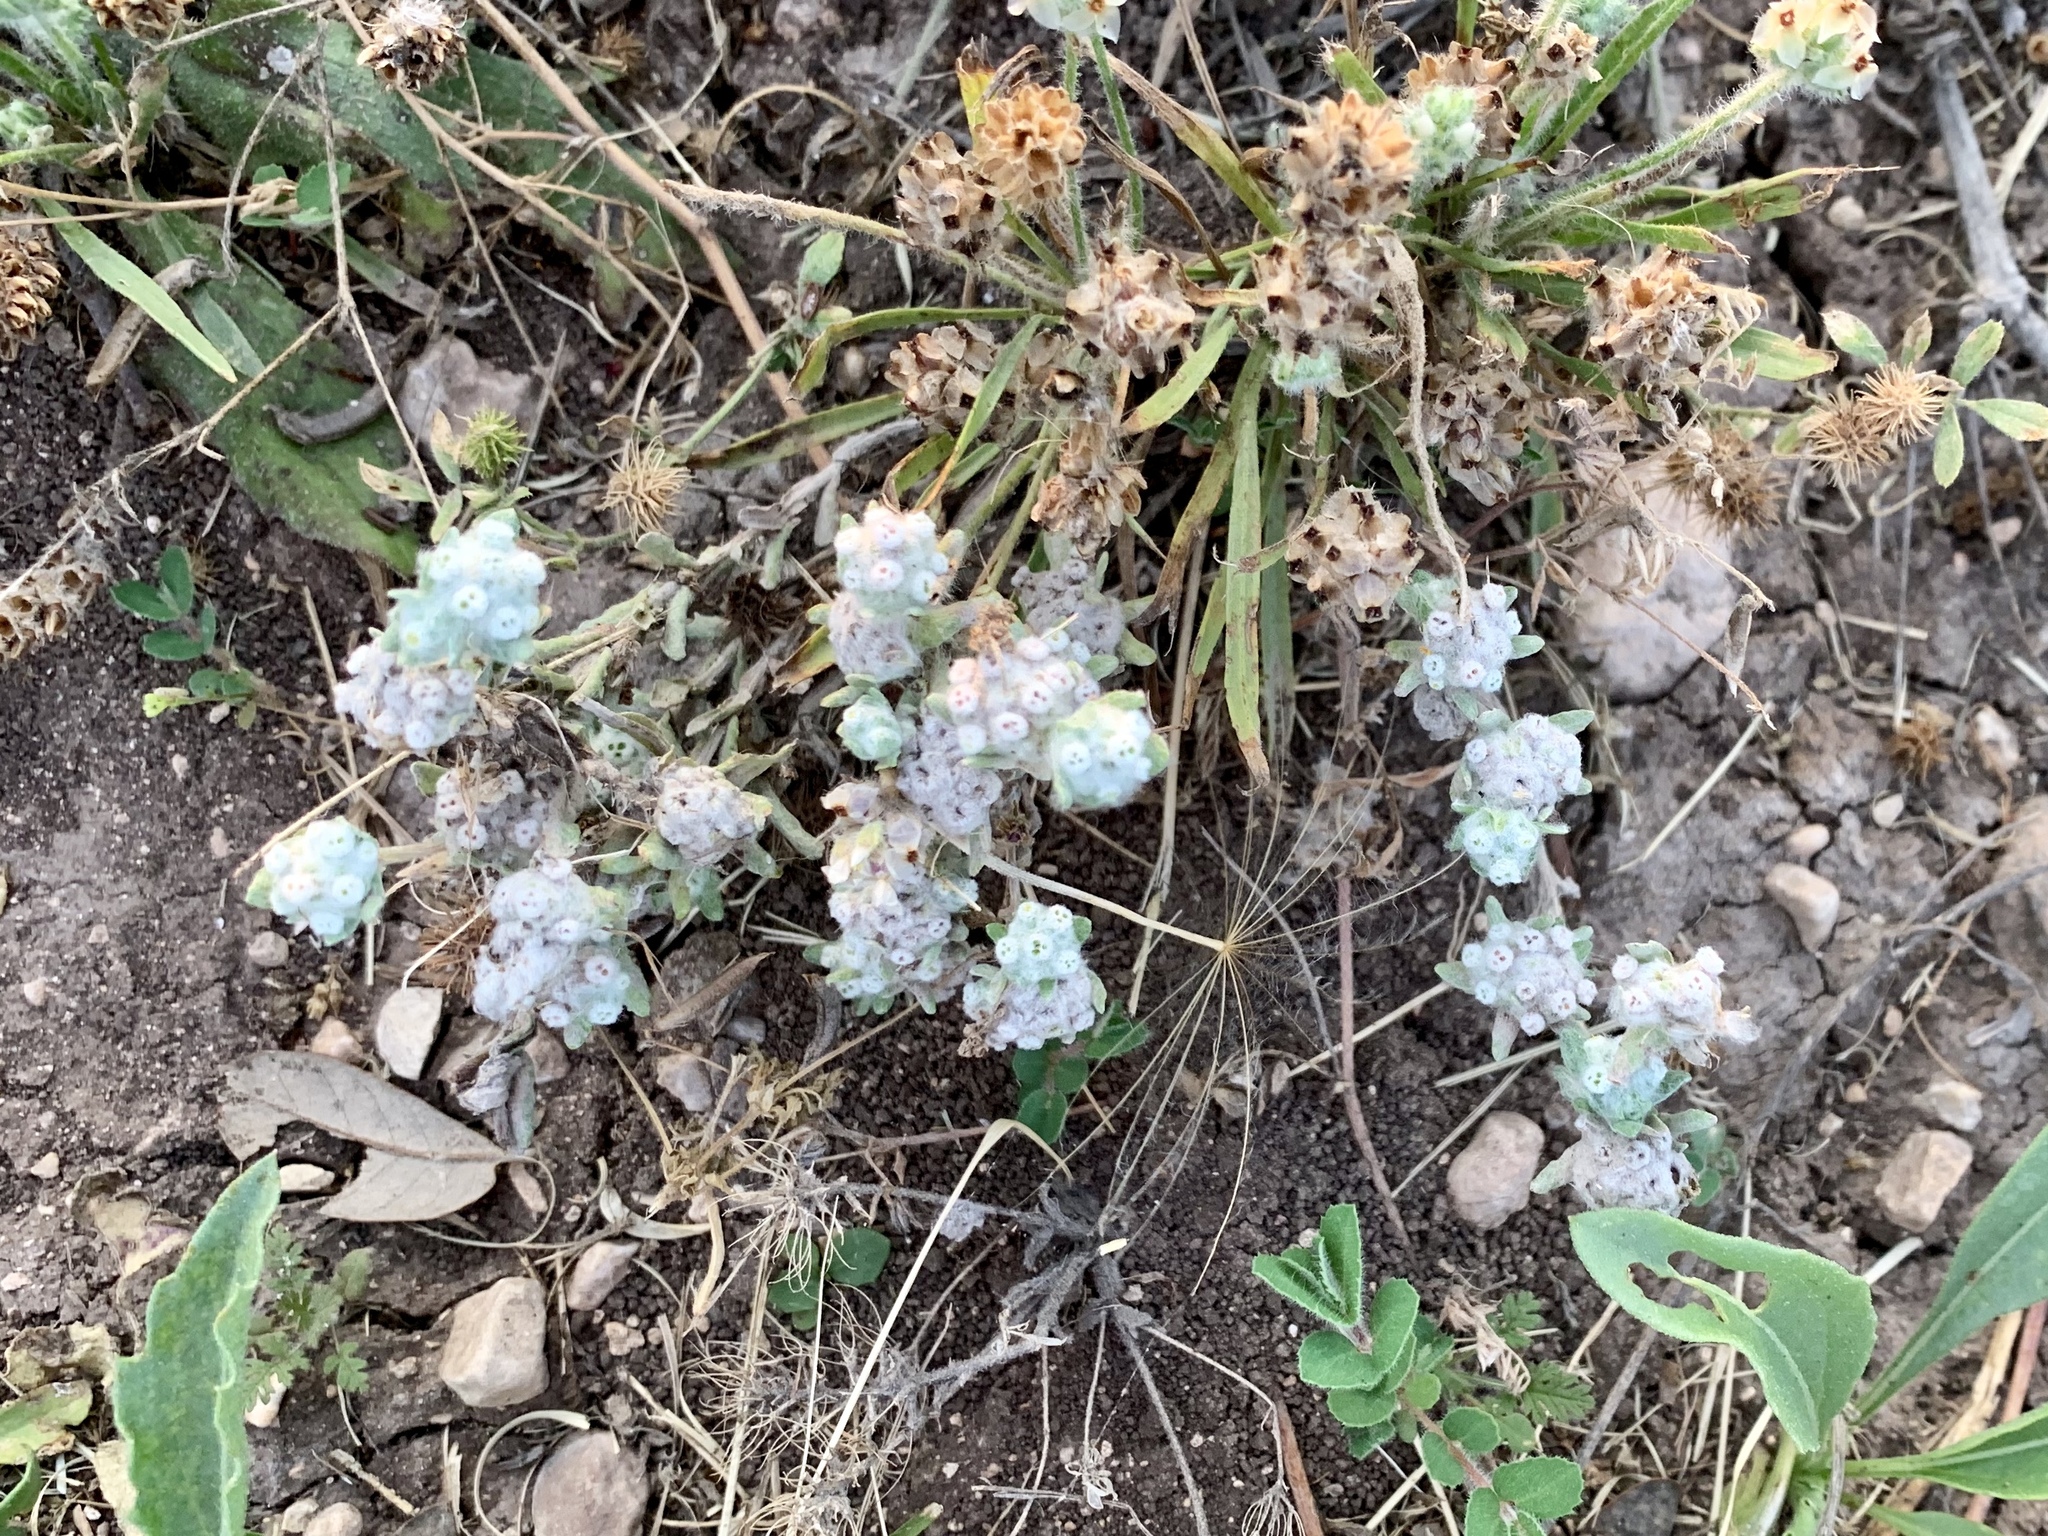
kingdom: Plantae
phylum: Tracheophyta
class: Magnoliopsida
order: Asterales
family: Asteraceae
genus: Diaperia
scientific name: Diaperia verna
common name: Many-stem rabbit-tobacco
